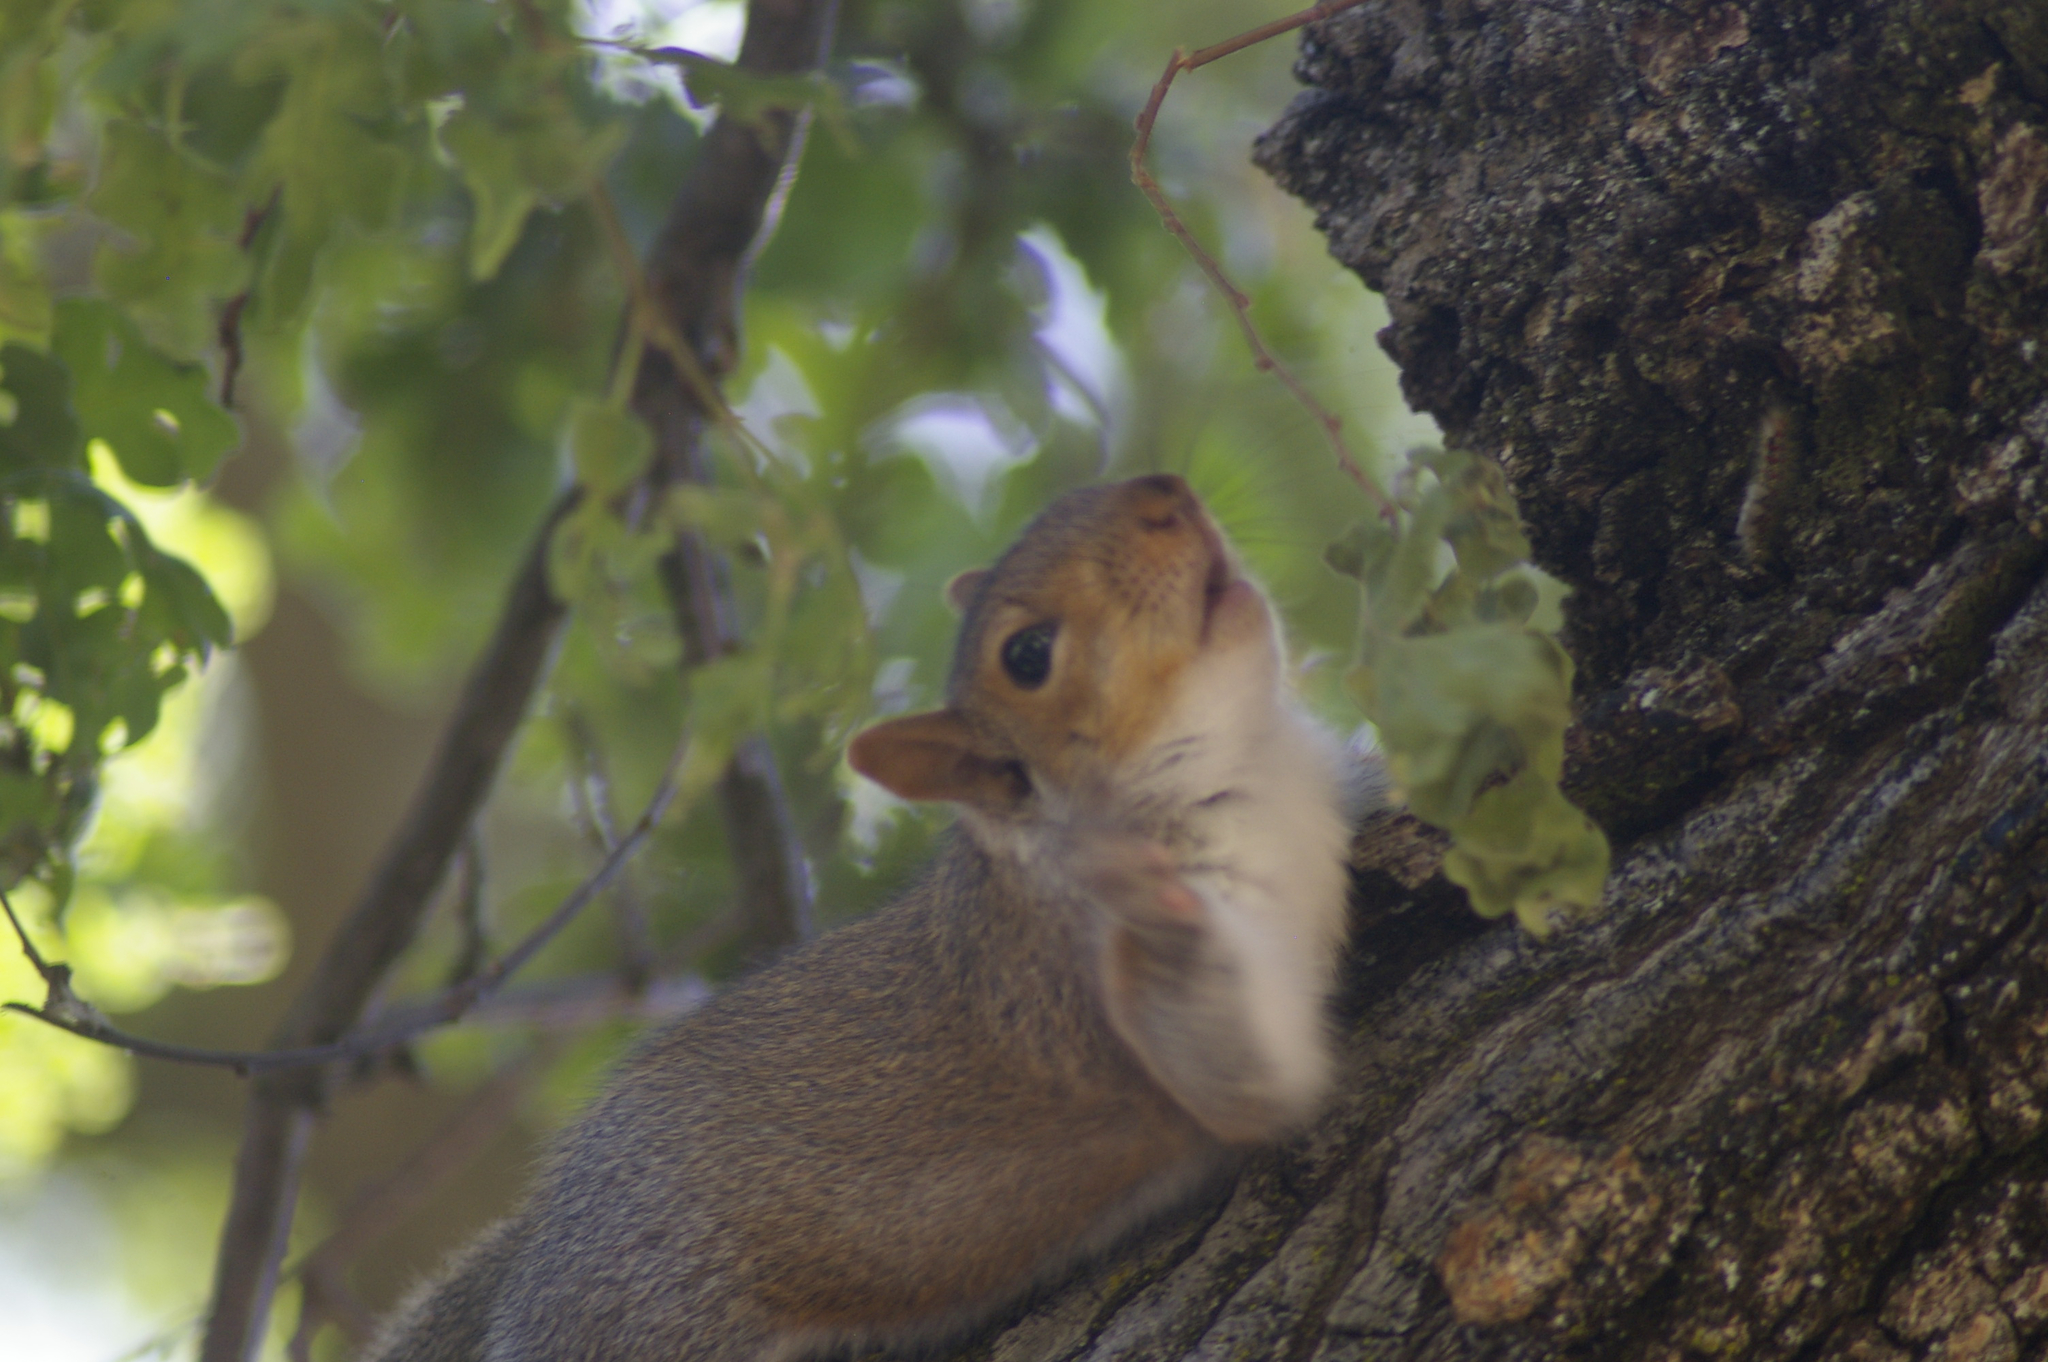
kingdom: Animalia
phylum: Chordata
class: Mammalia
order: Rodentia
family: Sciuridae
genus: Sciurus
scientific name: Sciurus carolinensis
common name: Eastern gray squirrel
